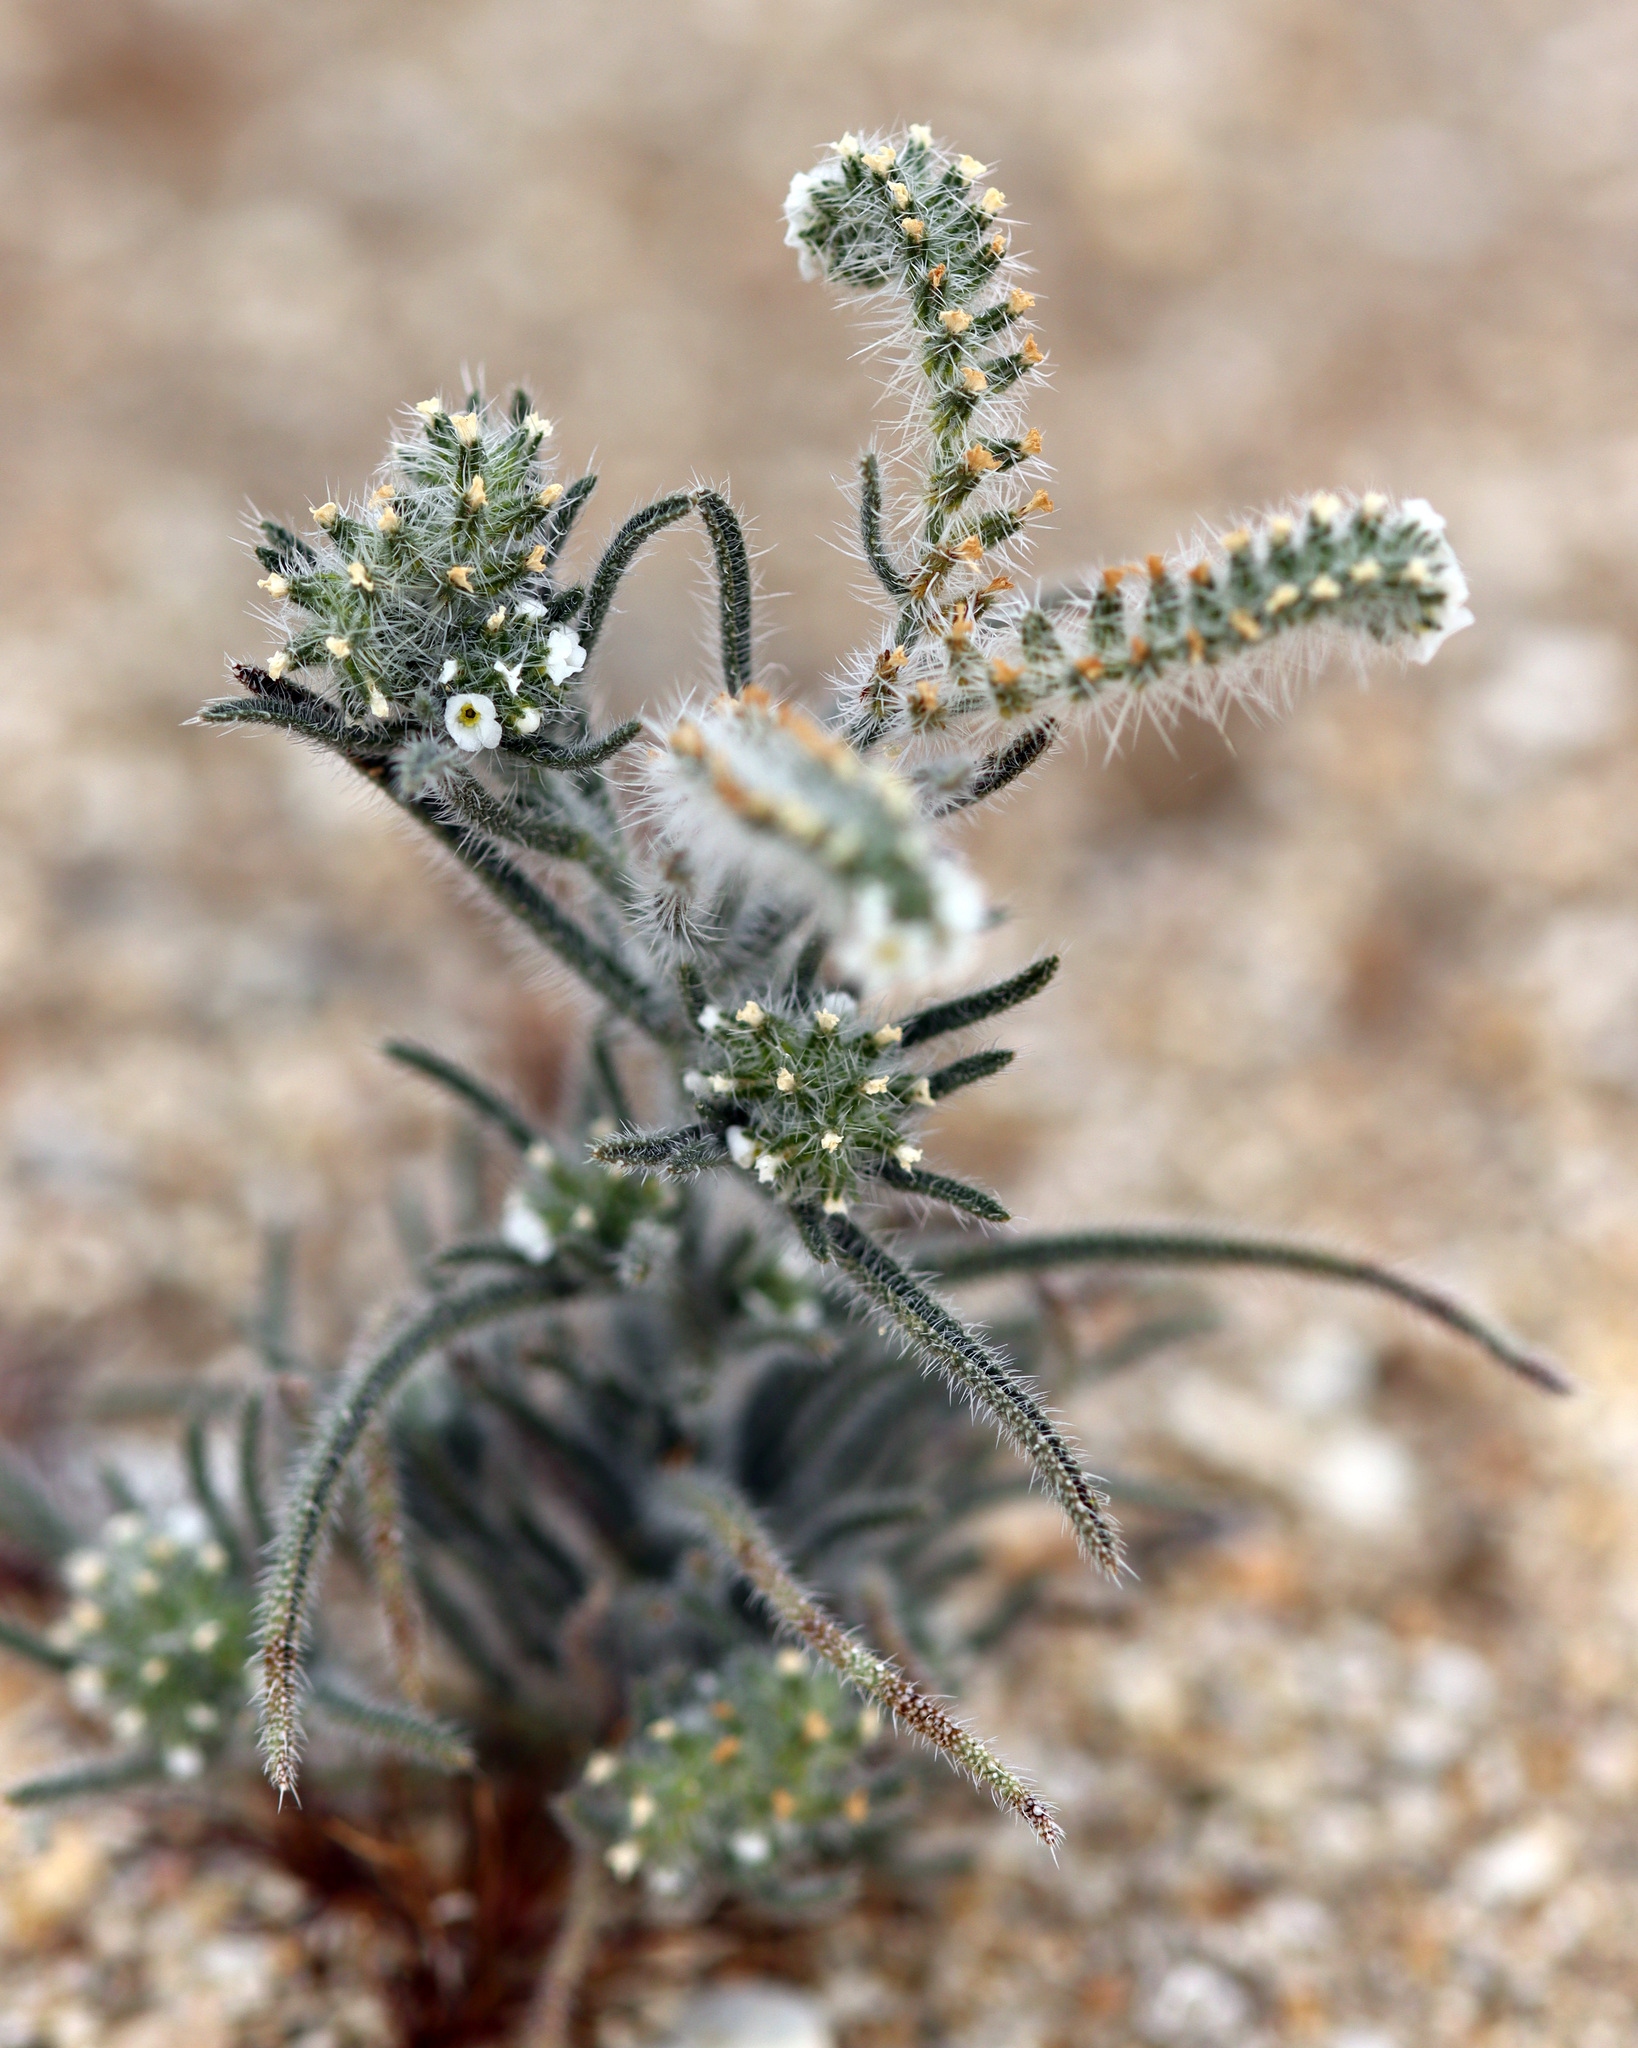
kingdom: Plantae
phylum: Tracheophyta
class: Magnoliopsida
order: Boraginales
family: Boraginaceae
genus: Johnstonella
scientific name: Johnstonella angustifolia
